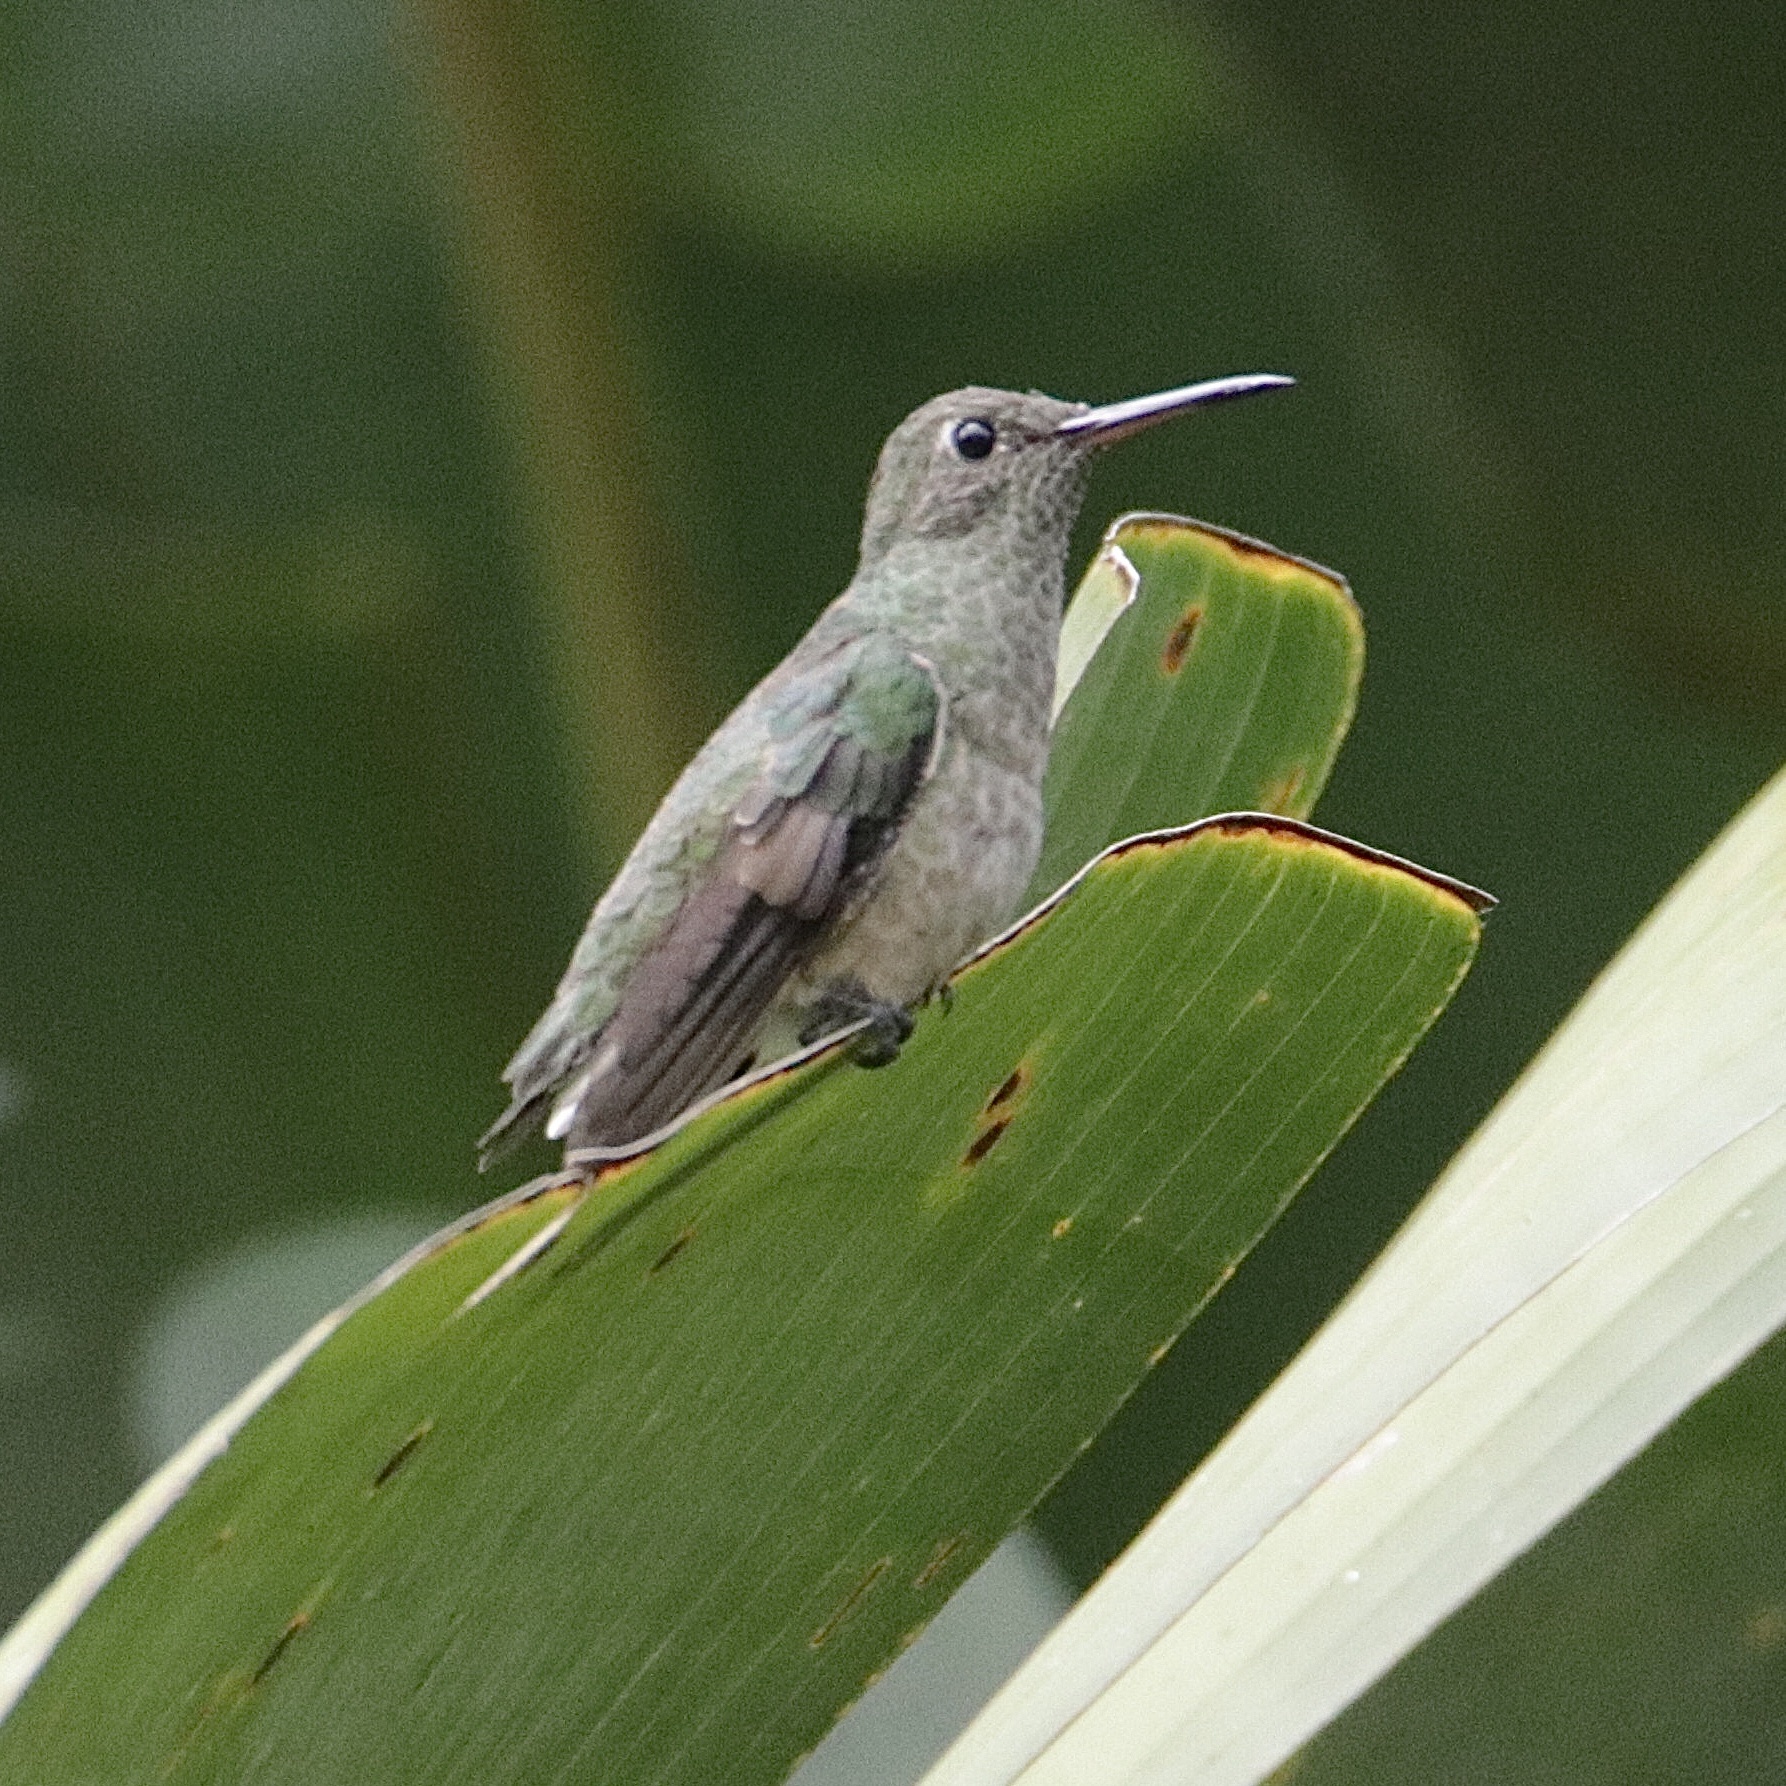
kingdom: Animalia
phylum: Chordata
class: Aves
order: Apodiformes
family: Trochilidae
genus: Phaeochroa
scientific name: Phaeochroa cuvierii
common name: Scaly-breasted hummingbird
